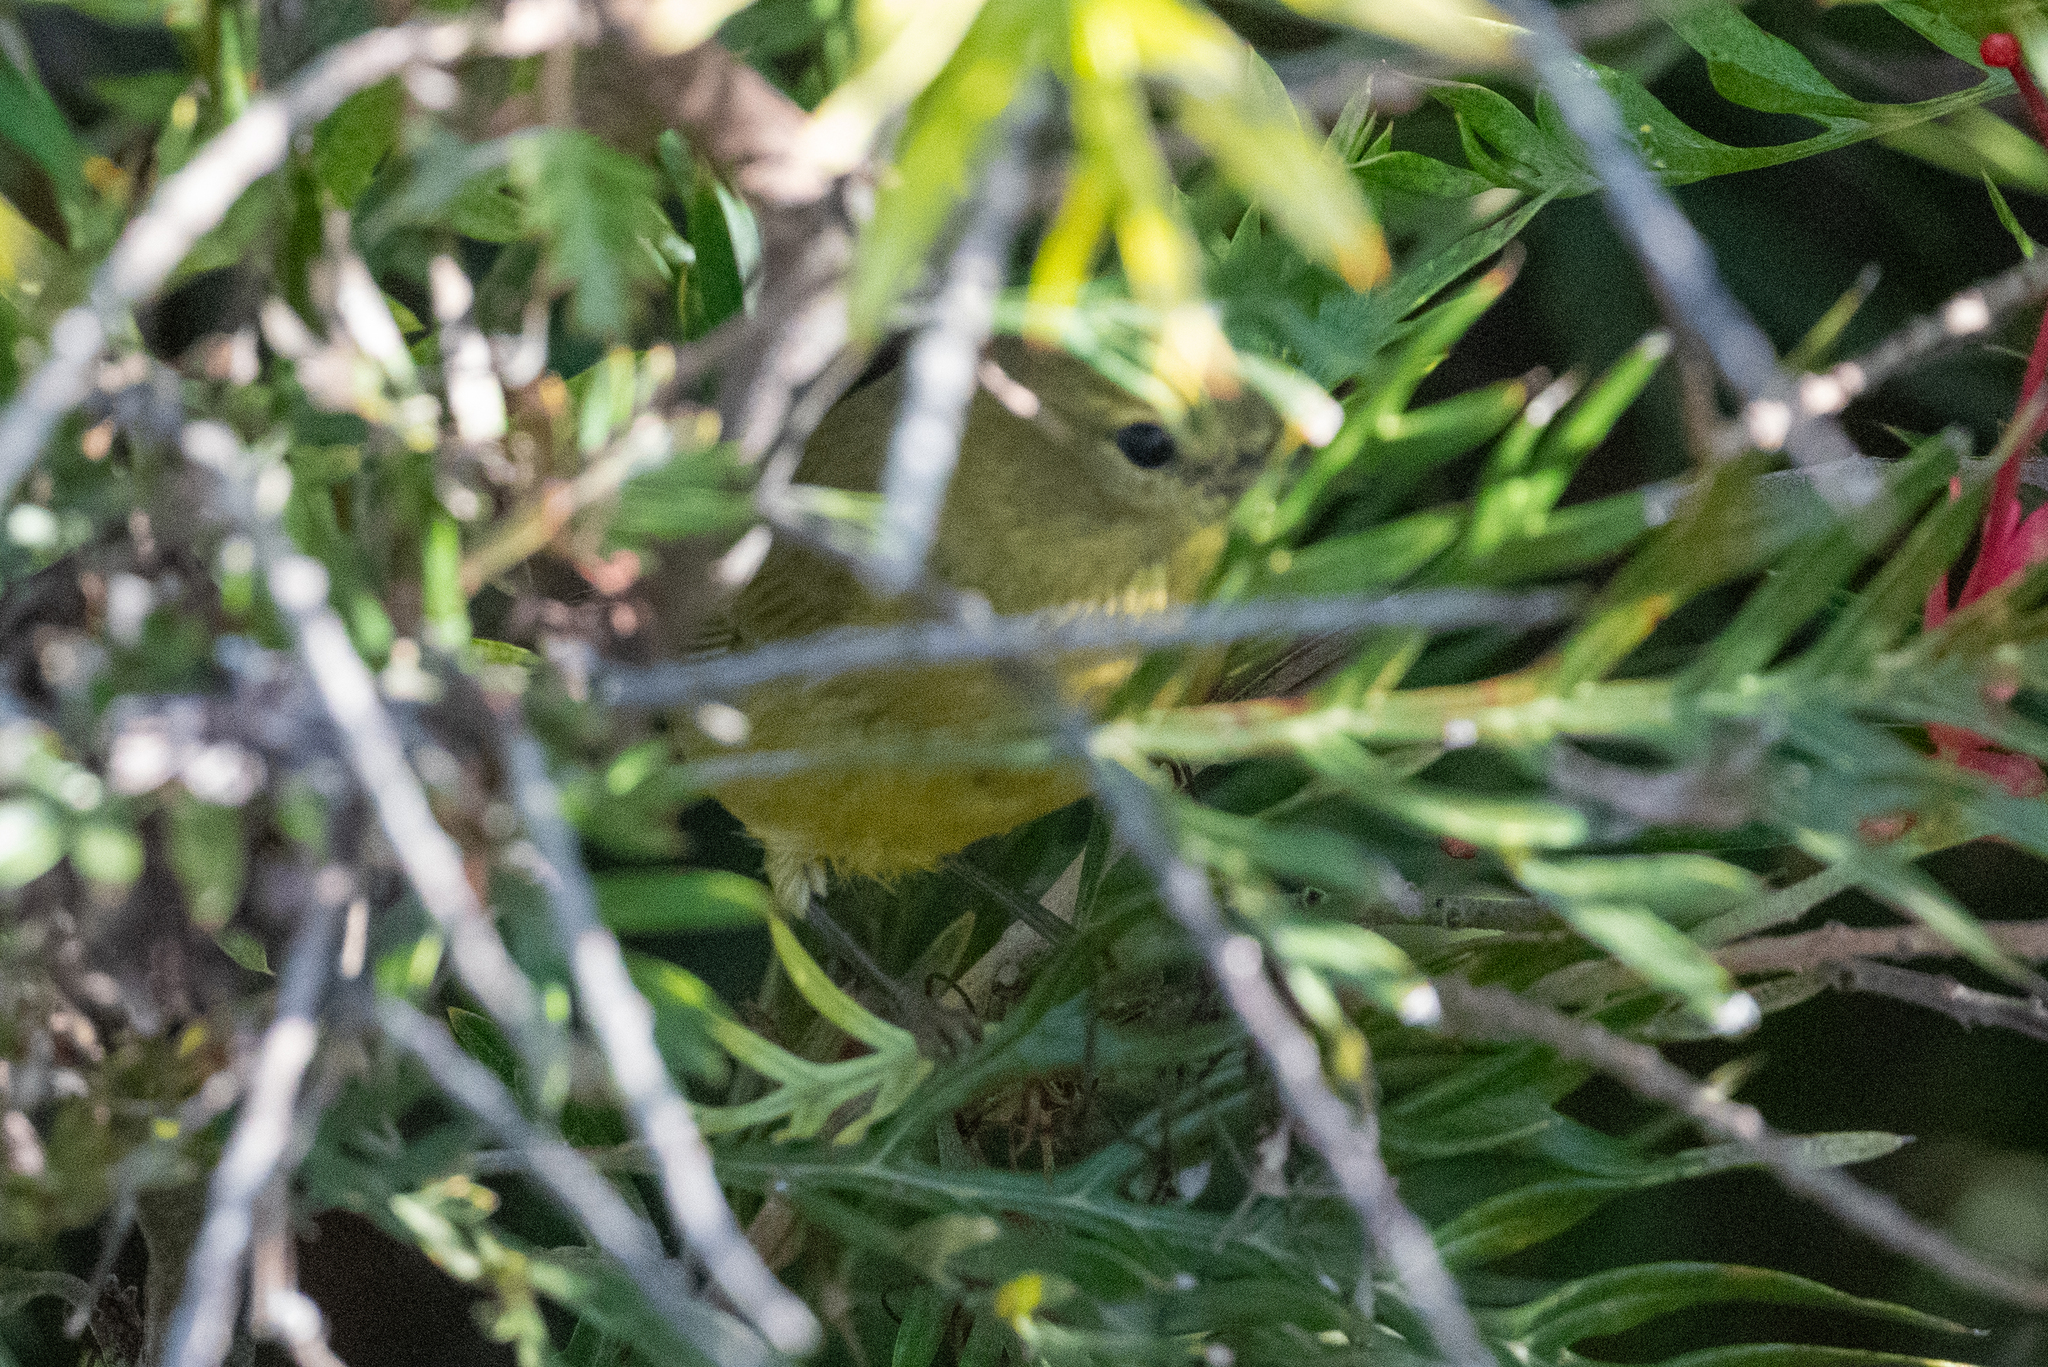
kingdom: Animalia
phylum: Chordata
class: Aves
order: Passeriformes
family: Parulidae
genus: Leiothlypis
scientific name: Leiothlypis celata
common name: Orange-crowned warbler
